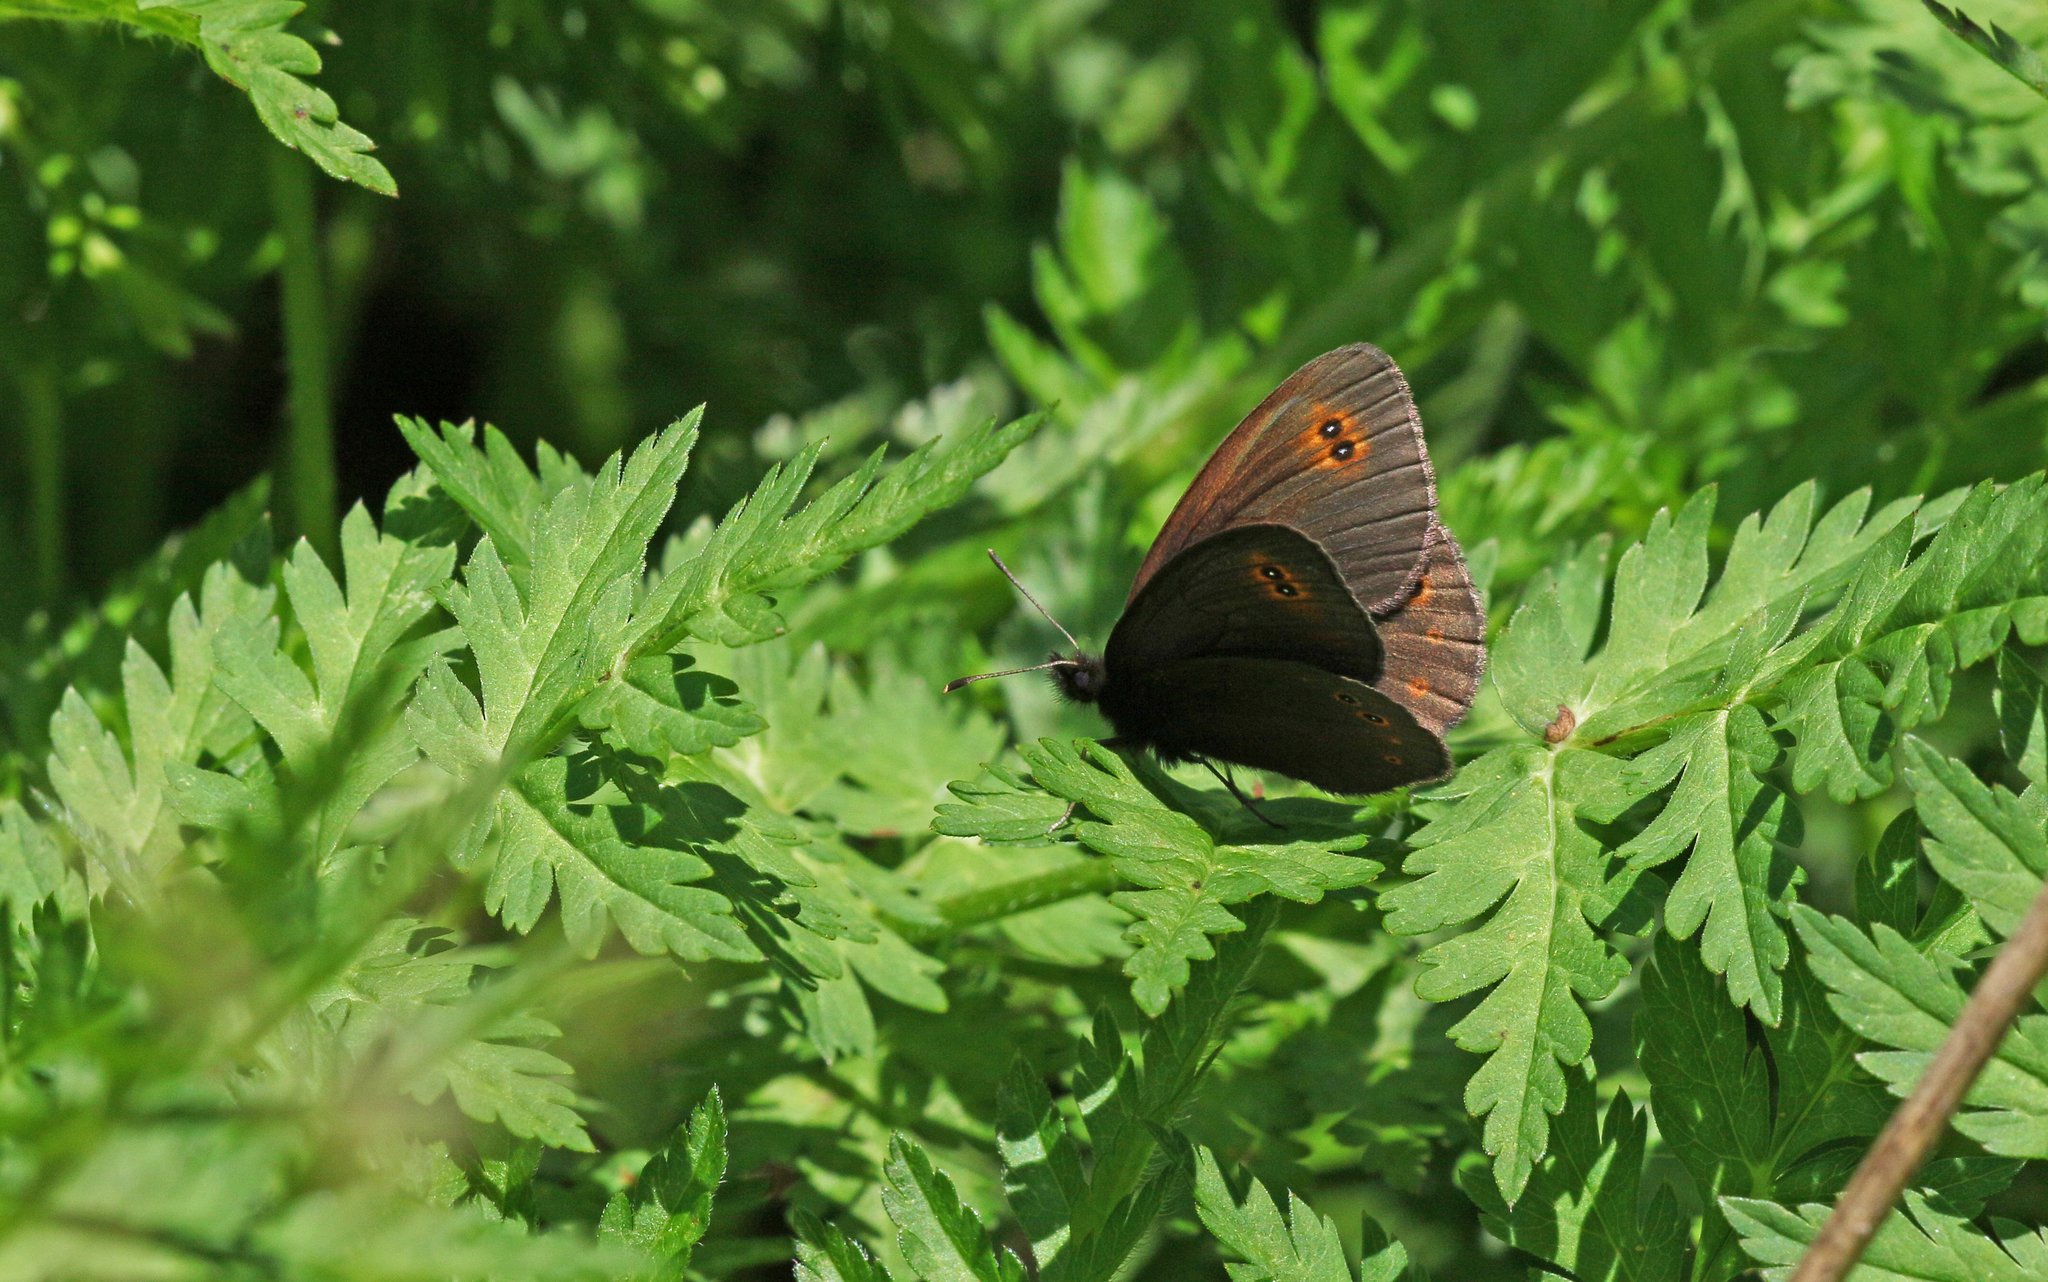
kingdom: Animalia
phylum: Arthropoda
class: Insecta
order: Lepidoptera
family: Nymphalidae
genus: Erebia
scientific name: Erebia medusa
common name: Woodland ringlet
